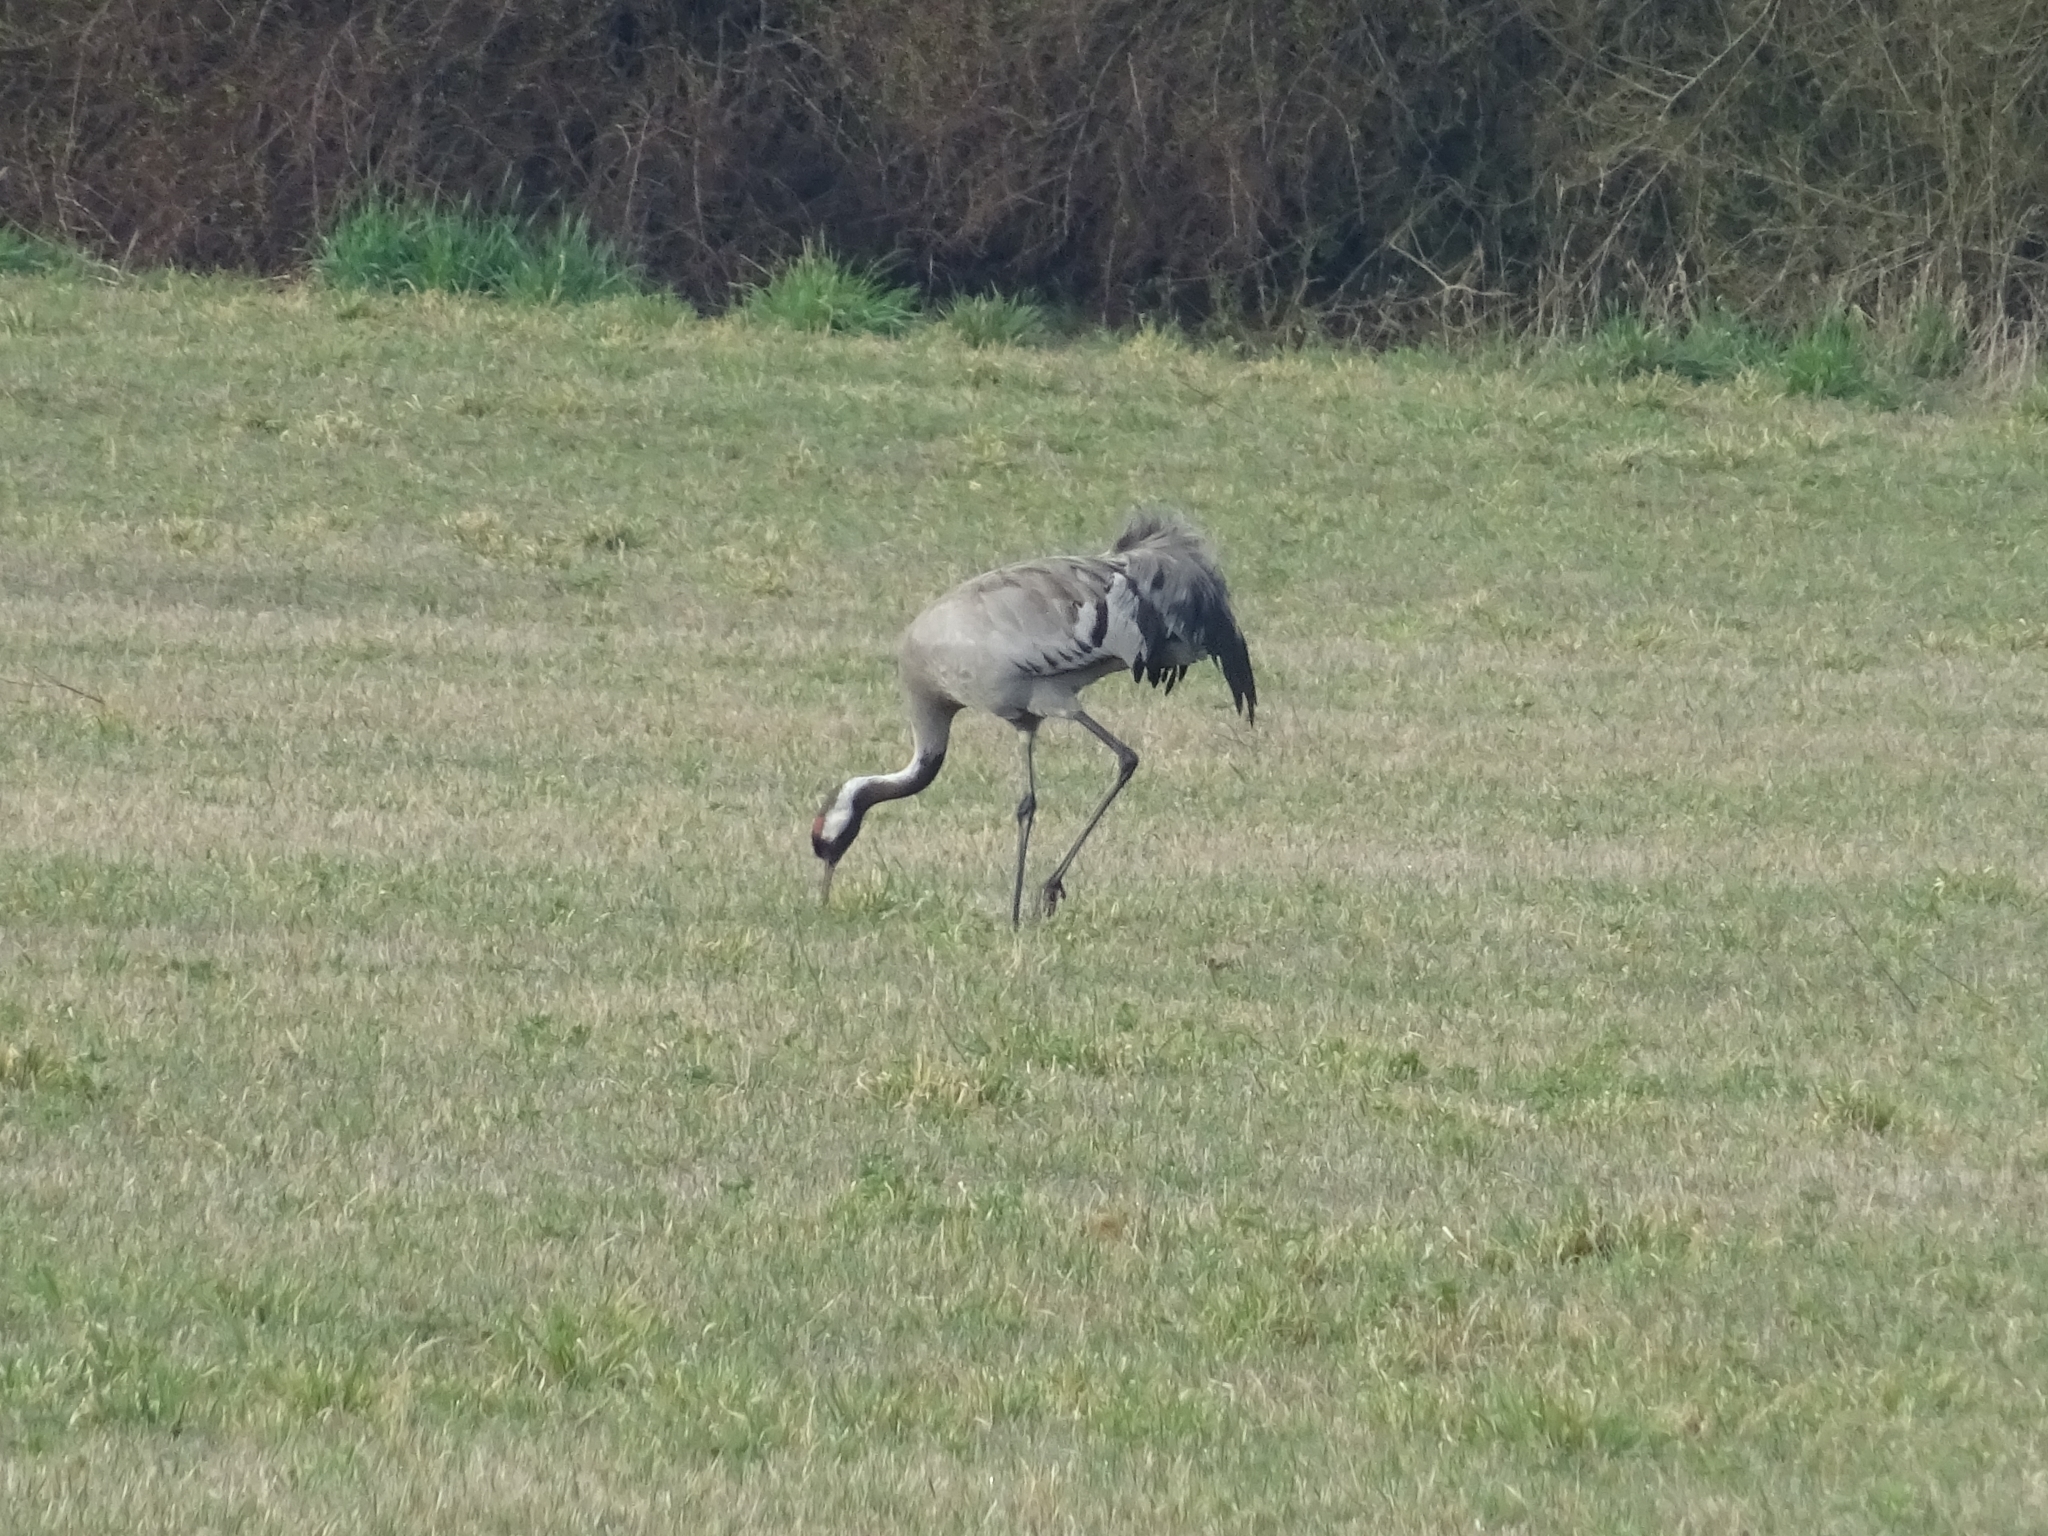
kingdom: Animalia
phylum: Chordata
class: Aves
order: Gruiformes
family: Gruidae
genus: Grus
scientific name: Grus grus
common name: Common crane
